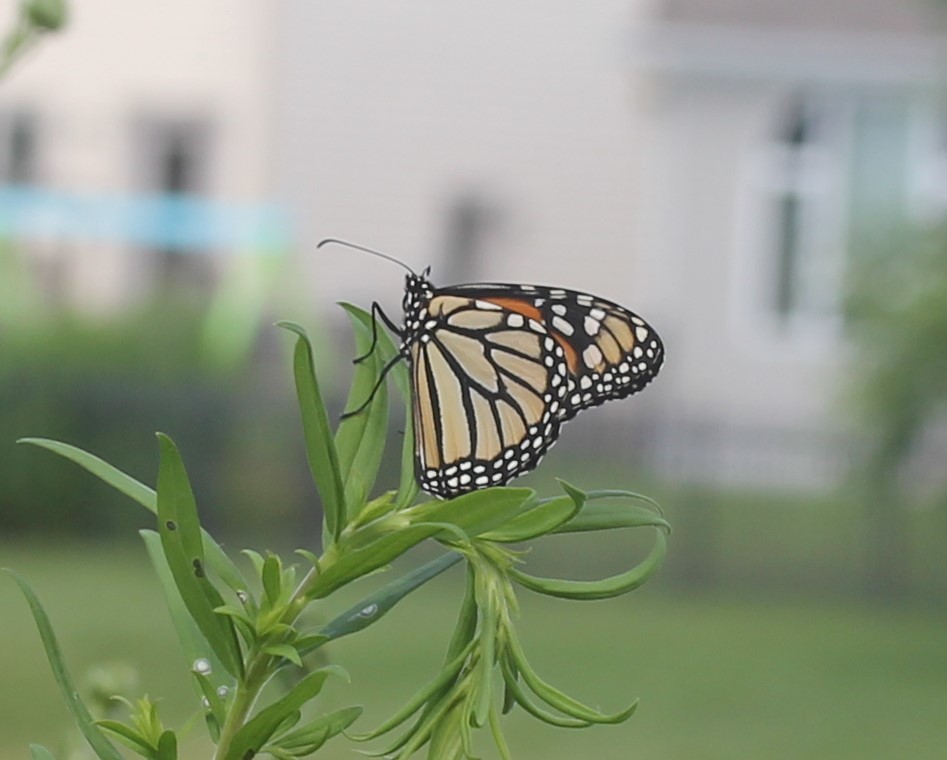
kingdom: Animalia
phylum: Arthropoda
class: Insecta
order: Lepidoptera
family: Nymphalidae
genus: Danaus
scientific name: Danaus plexippus
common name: Monarch
